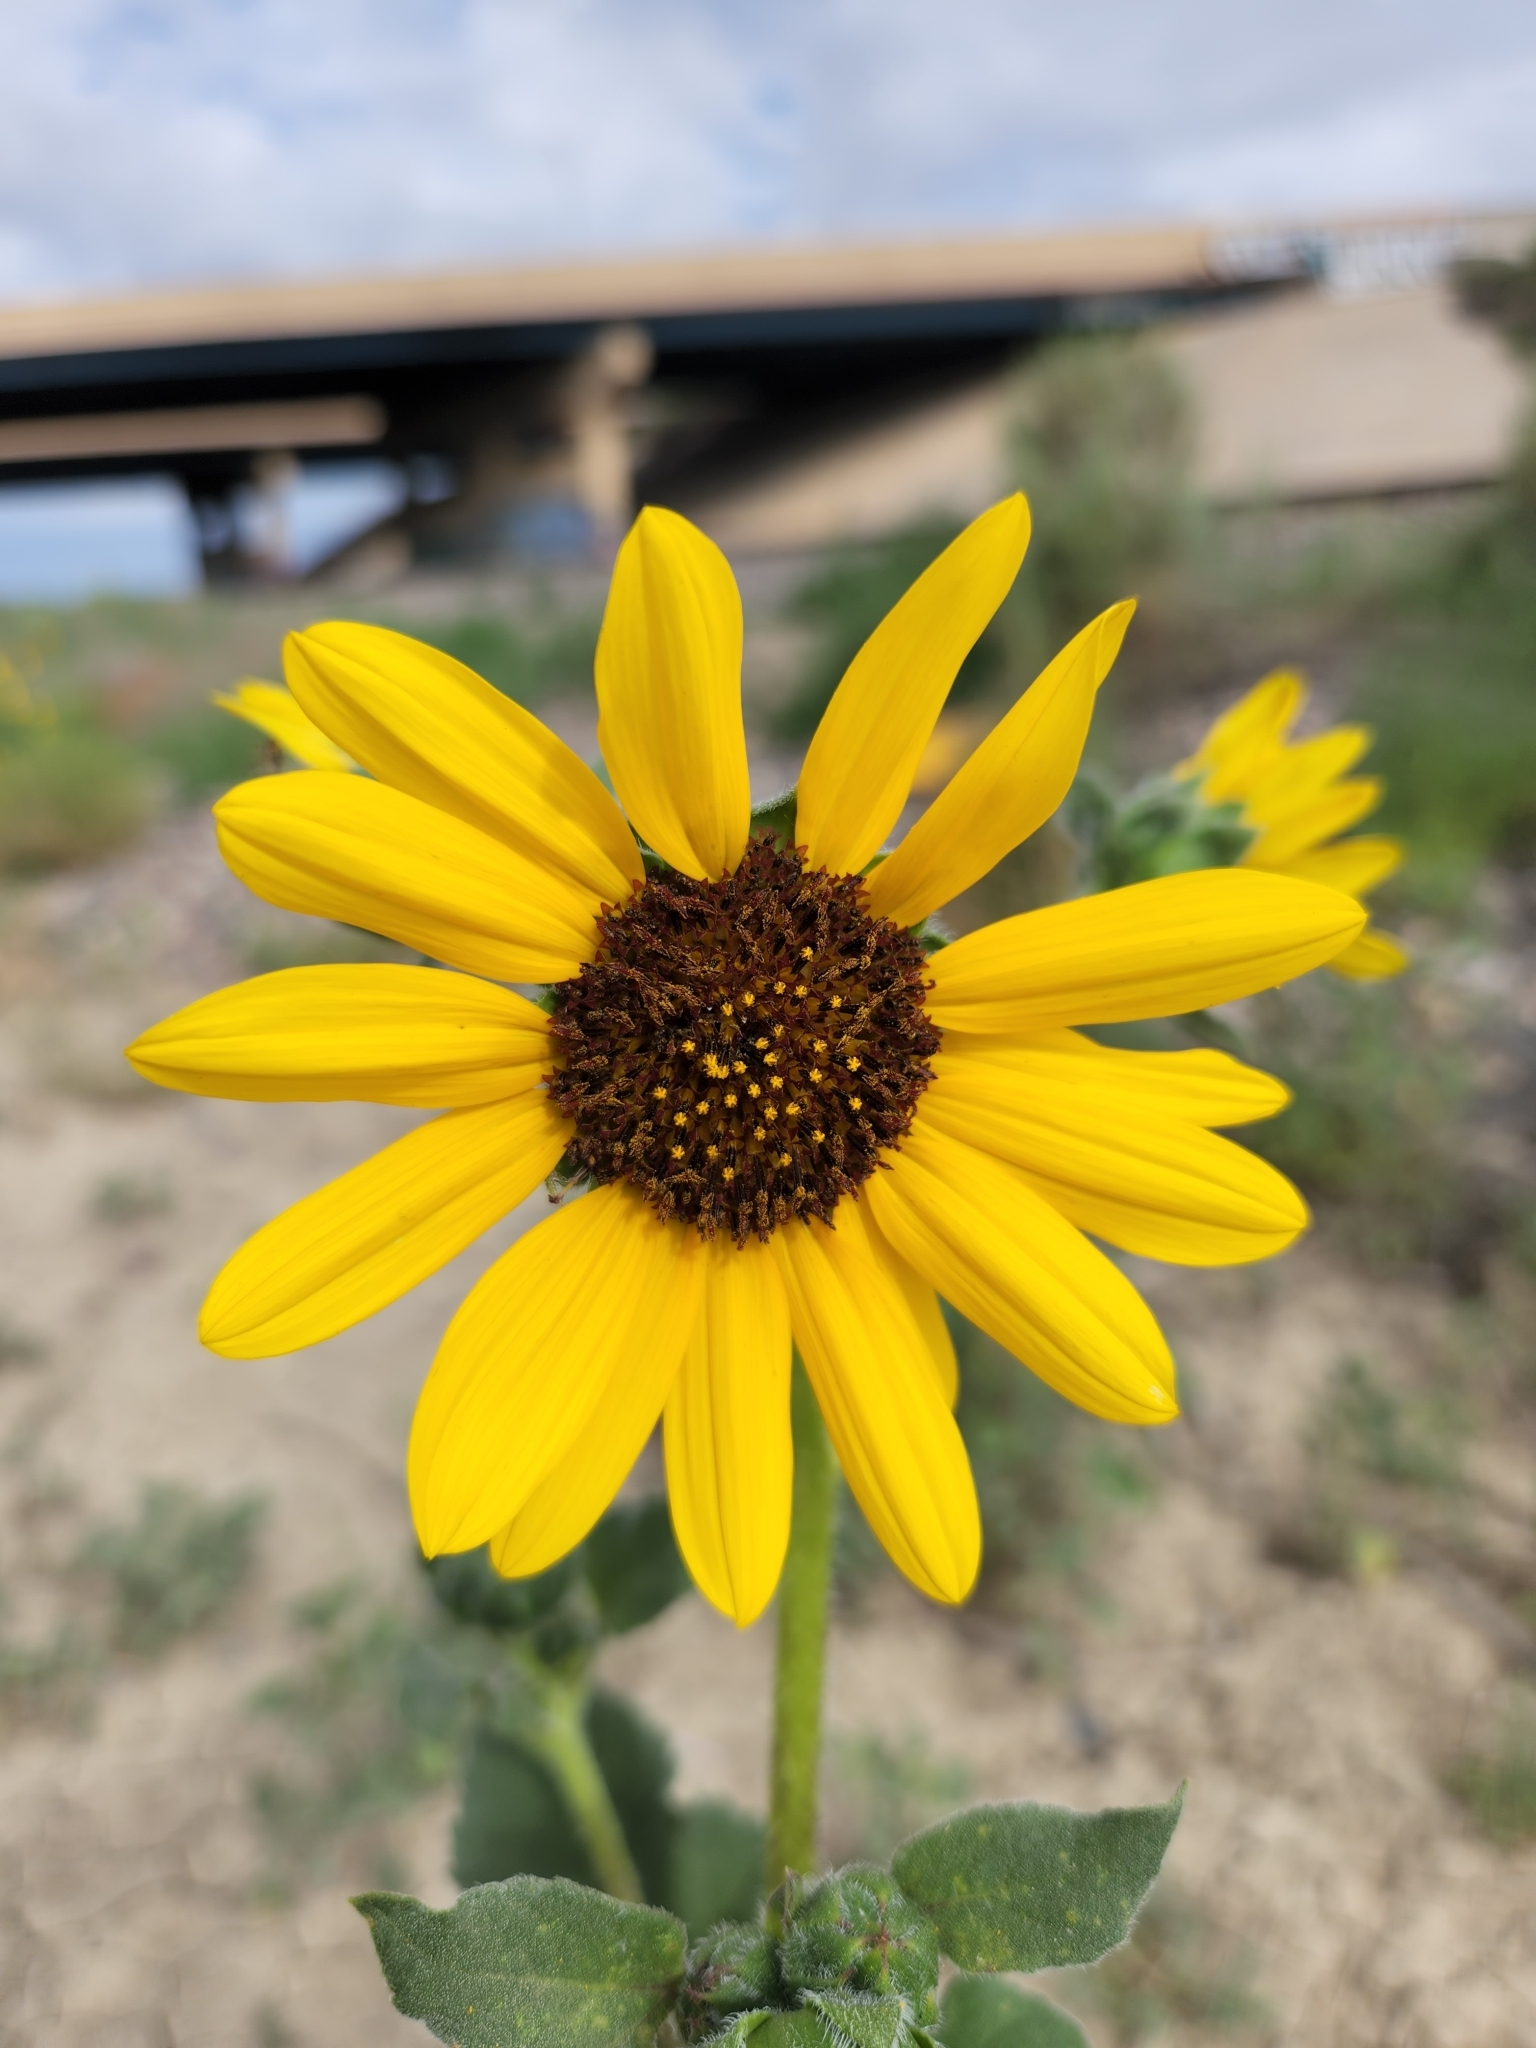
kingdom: Plantae
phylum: Tracheophyta
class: Magnoliopsida
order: Asterales
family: Asteraceae
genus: Helianthus
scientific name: Helianthus petiolaris
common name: Lesser sunflower
